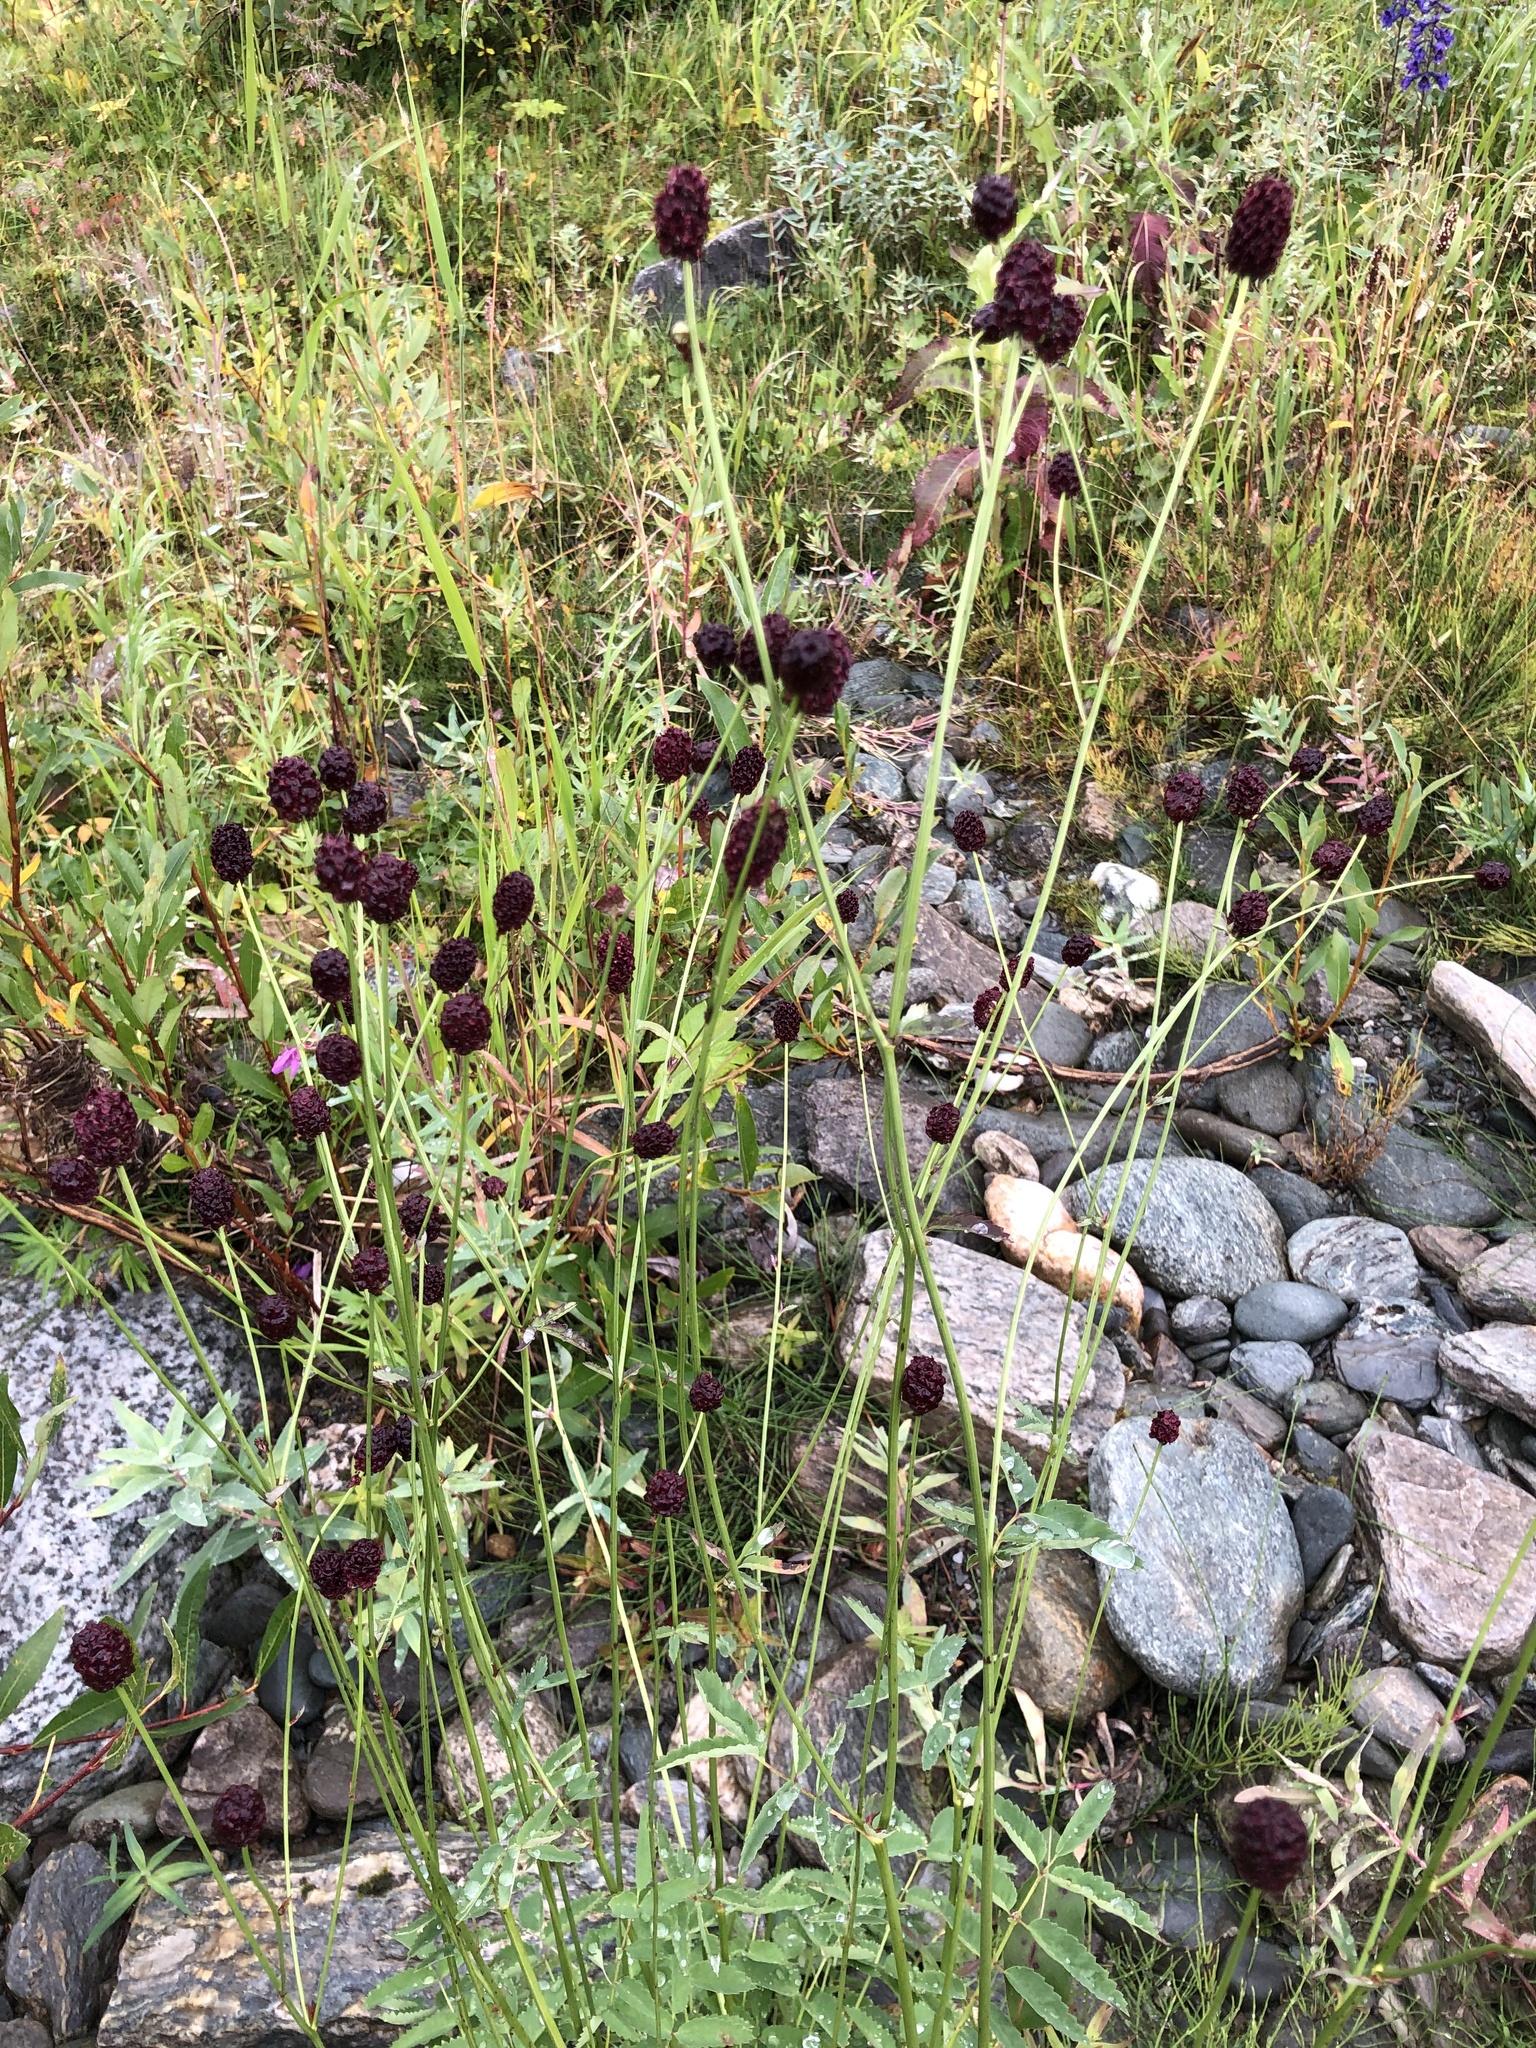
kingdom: Plantae
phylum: Tracheophyta
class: Magnoliopsida
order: Rosales
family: Rosaceae
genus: Sanguisorba
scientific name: Sanguisorba officinalis
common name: Great burnet
